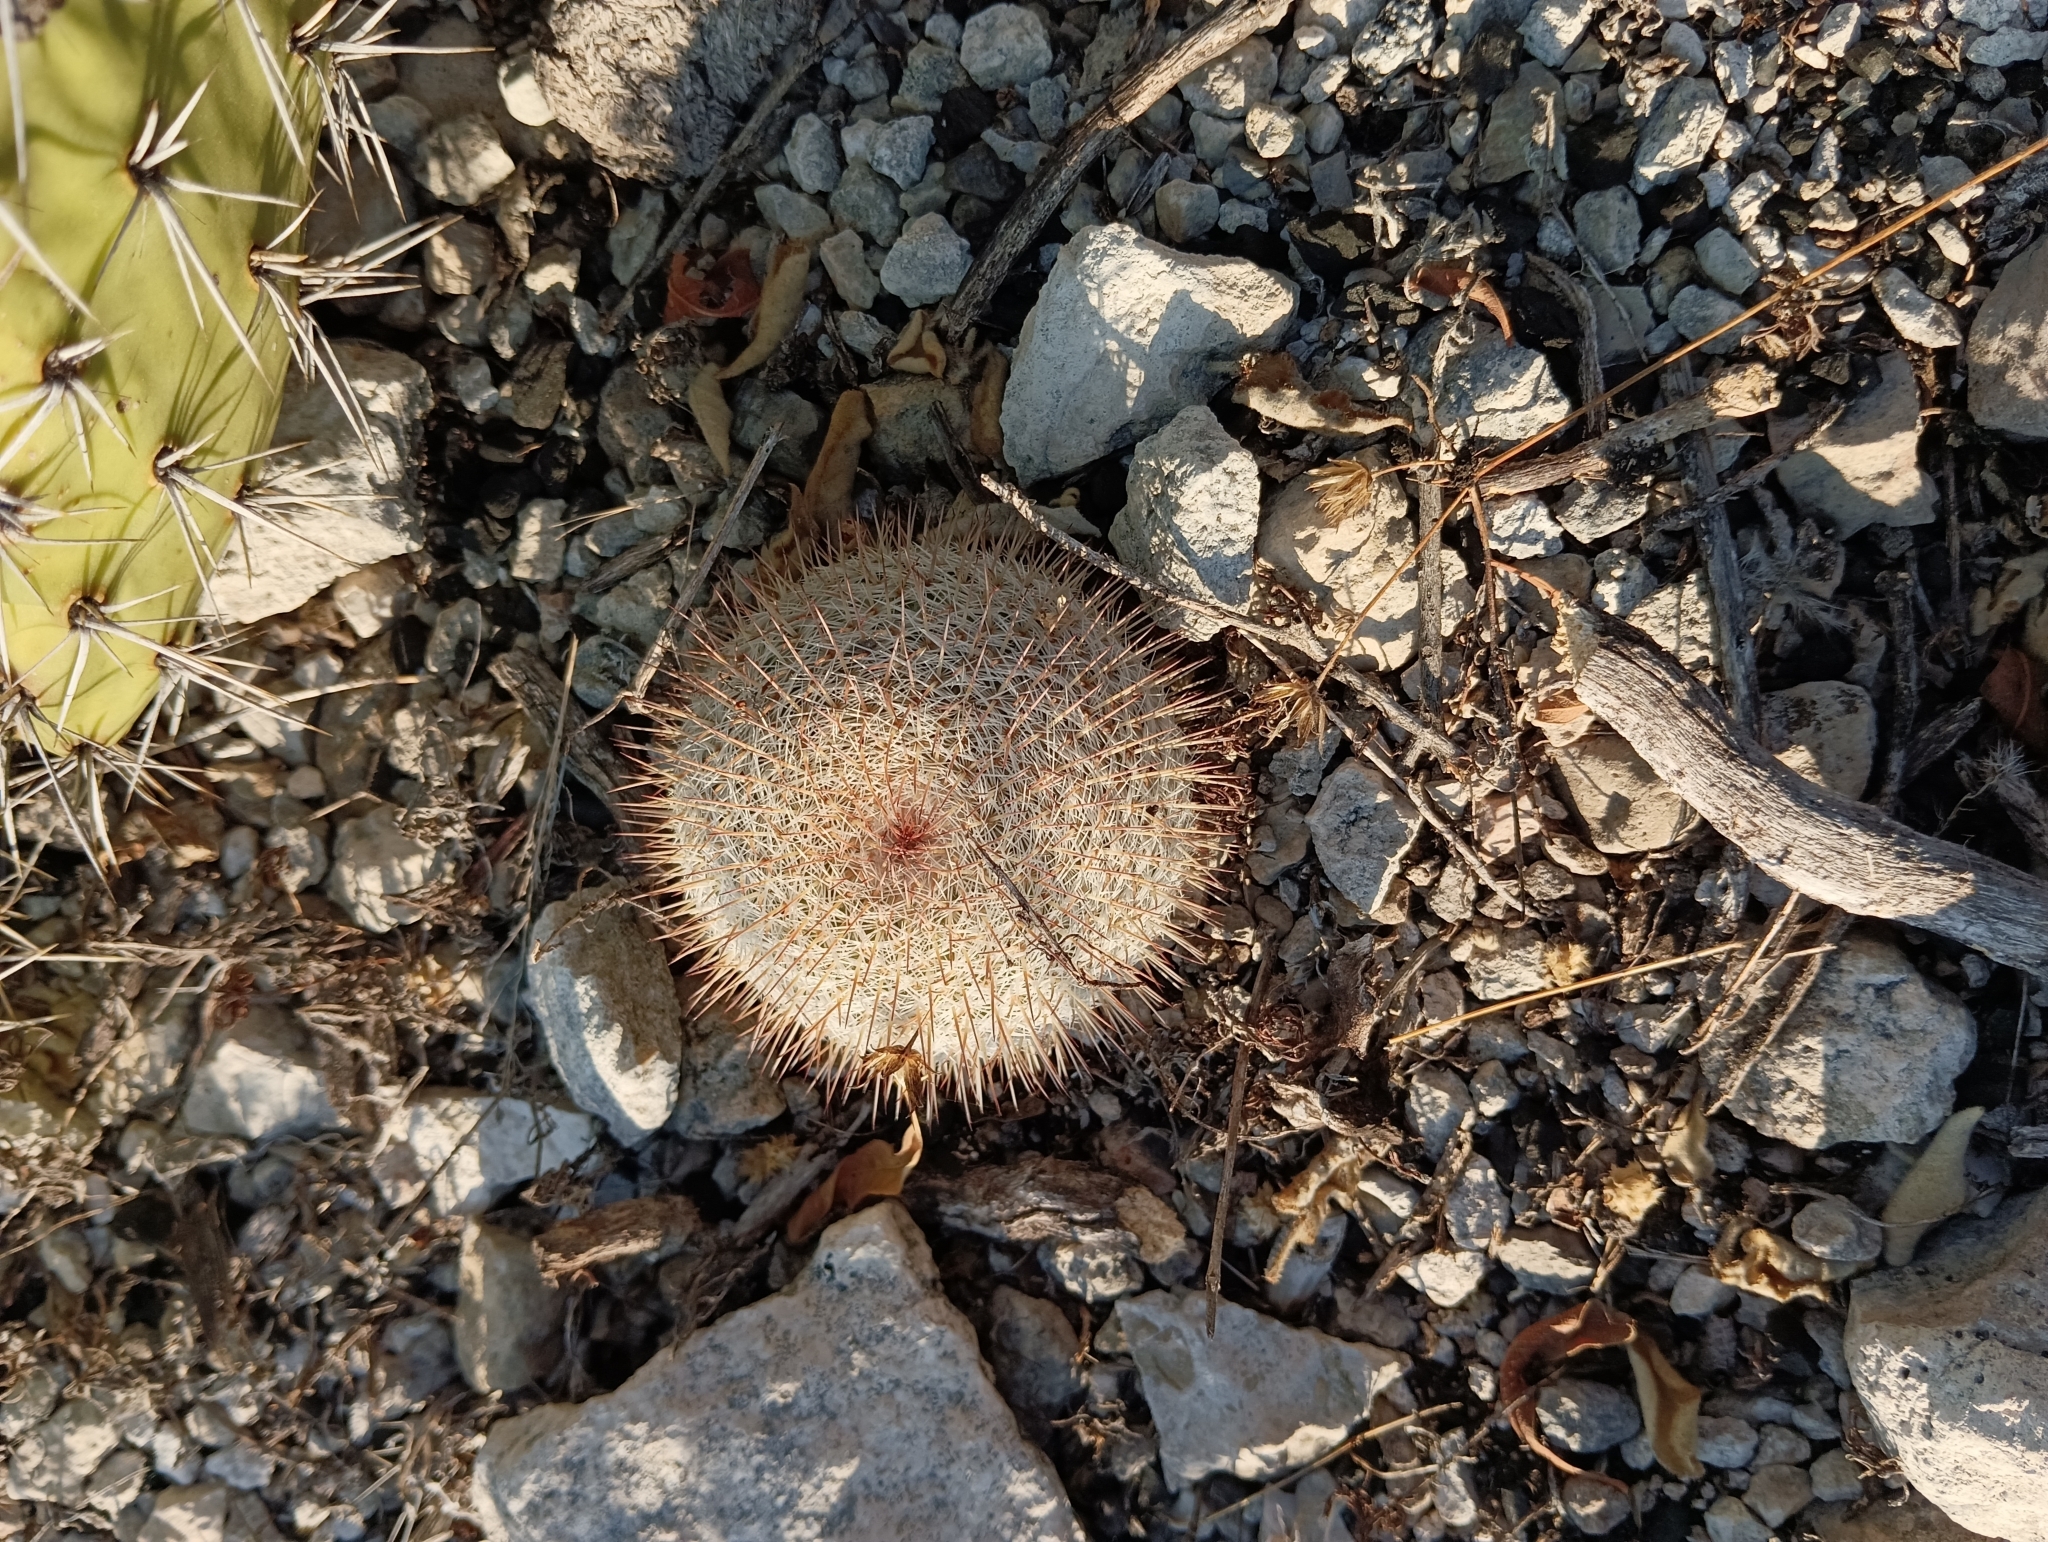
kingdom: Plantae
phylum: Tracheophyta
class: Magnoliopsida
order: Caryophyllales
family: Cactaceae
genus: Mammillaria
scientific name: Mammillaria haageana
